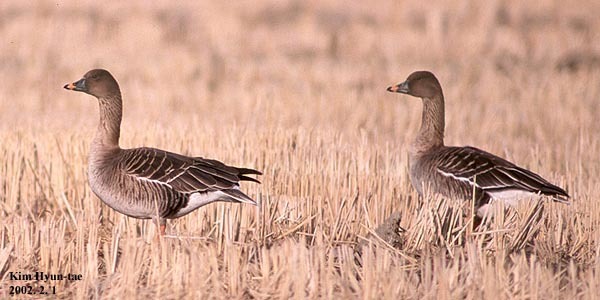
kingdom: Animalia
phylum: Chordata
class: Aves
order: Anseriformes
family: Anatidae
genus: Anser
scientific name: Anser serrirostris
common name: Tundra bean goose
